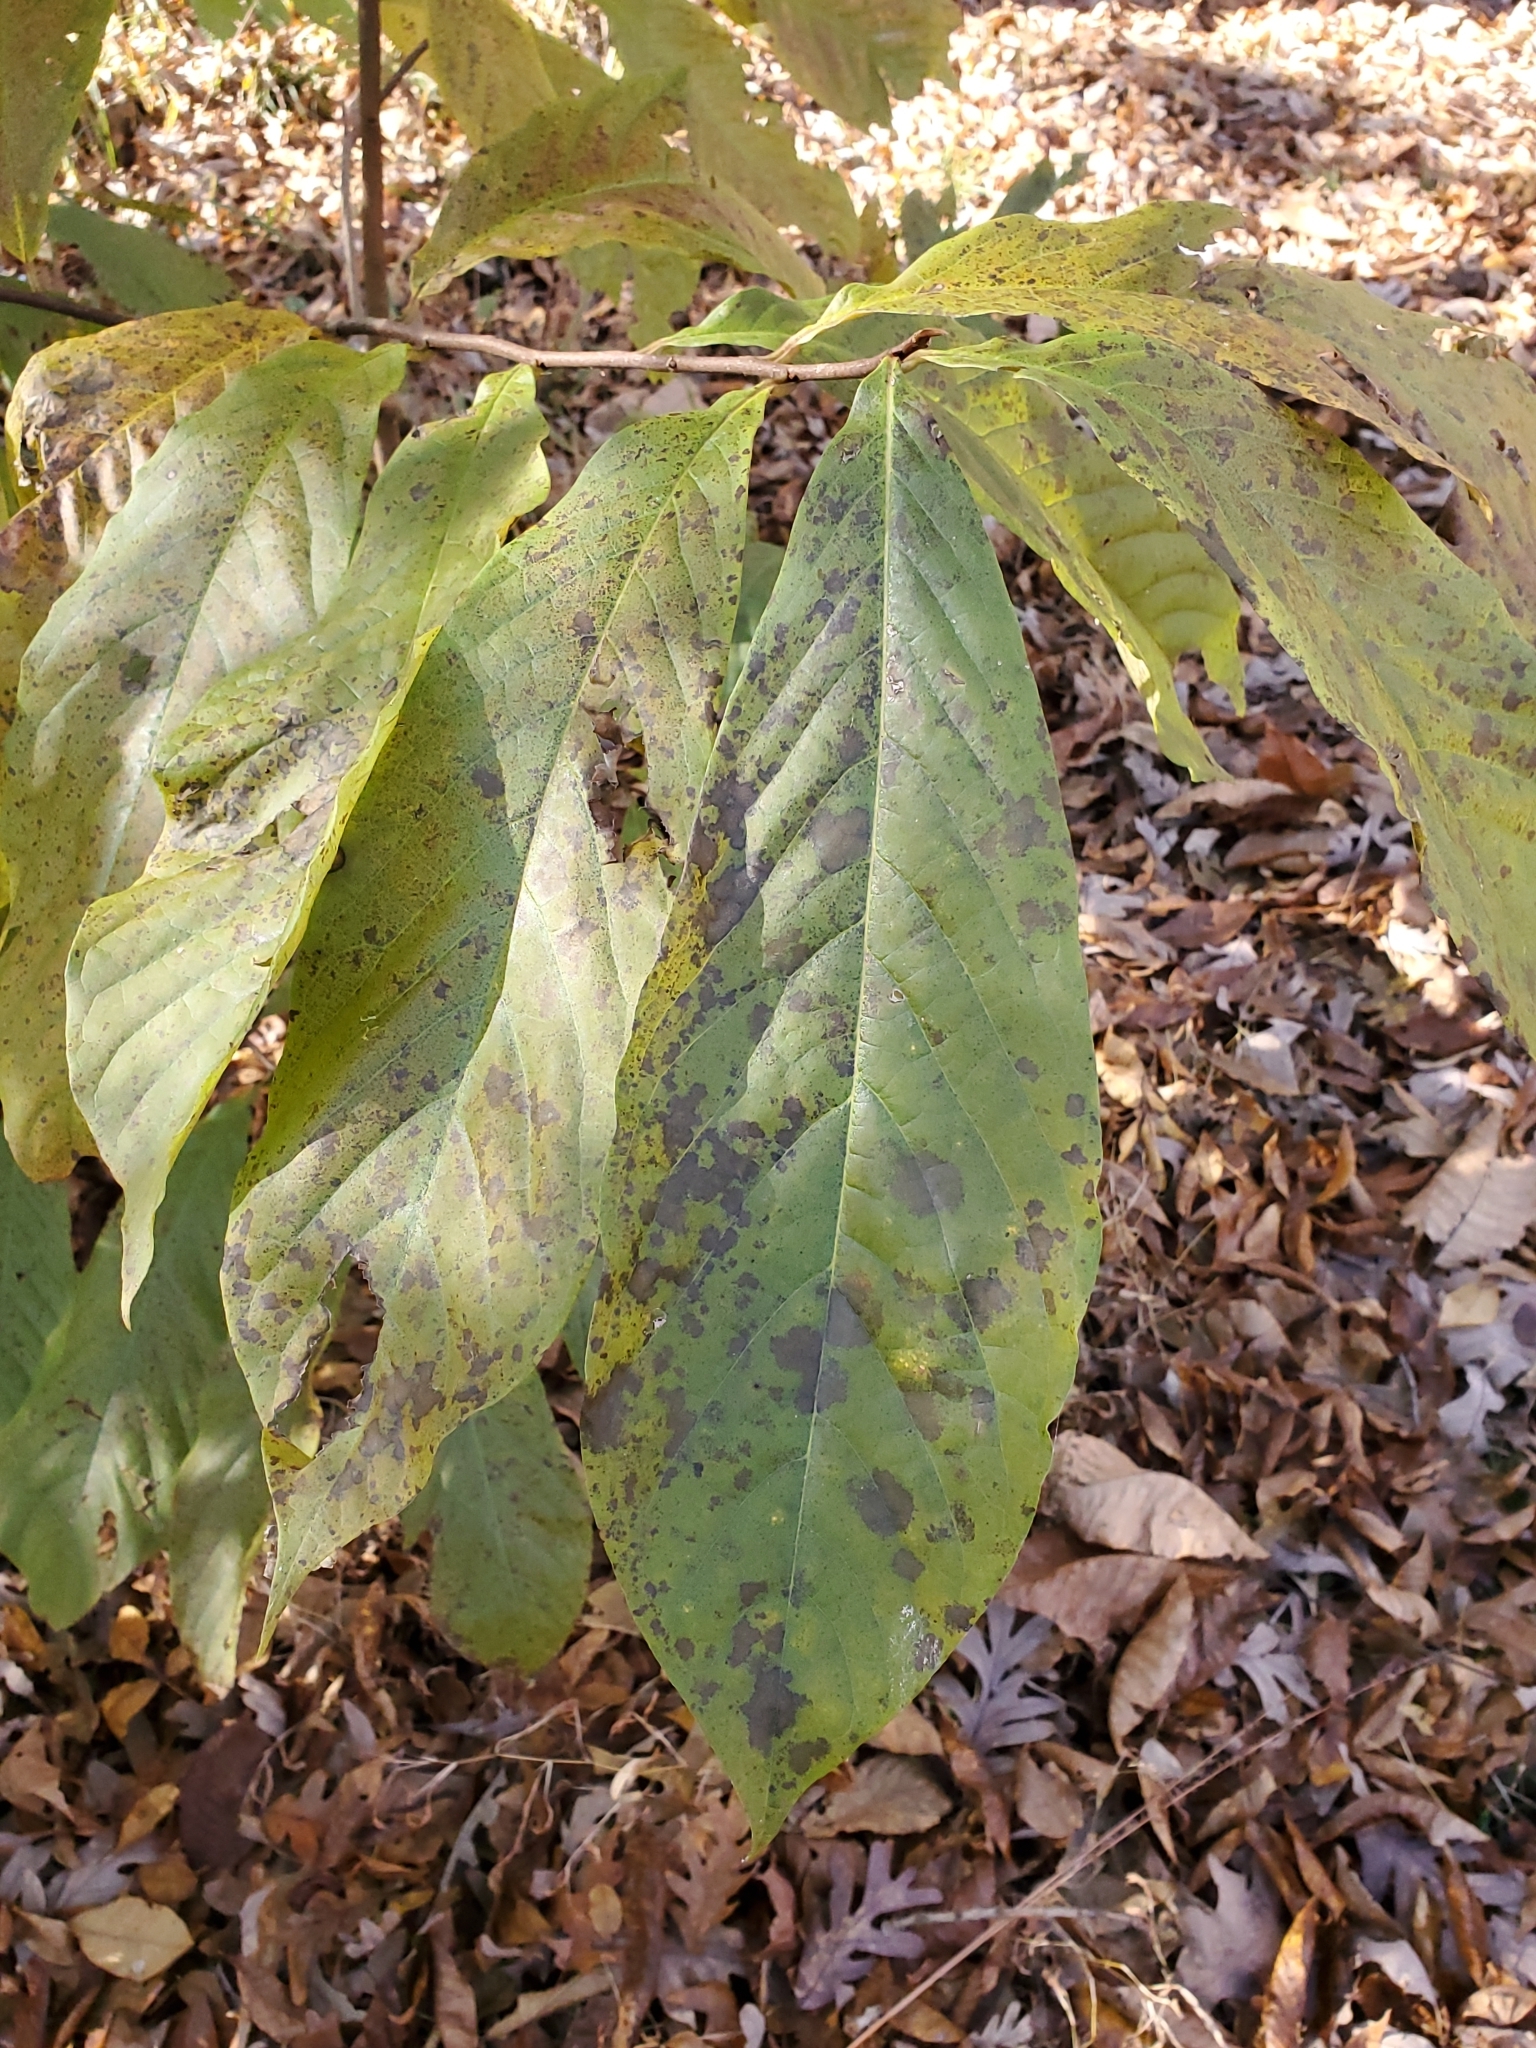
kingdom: Plantae
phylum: Tracheophyta
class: Magnoliopsida
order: Magnoliales
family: Annonaceae
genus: Asimina
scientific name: Asimina triloba
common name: Dog-banana
